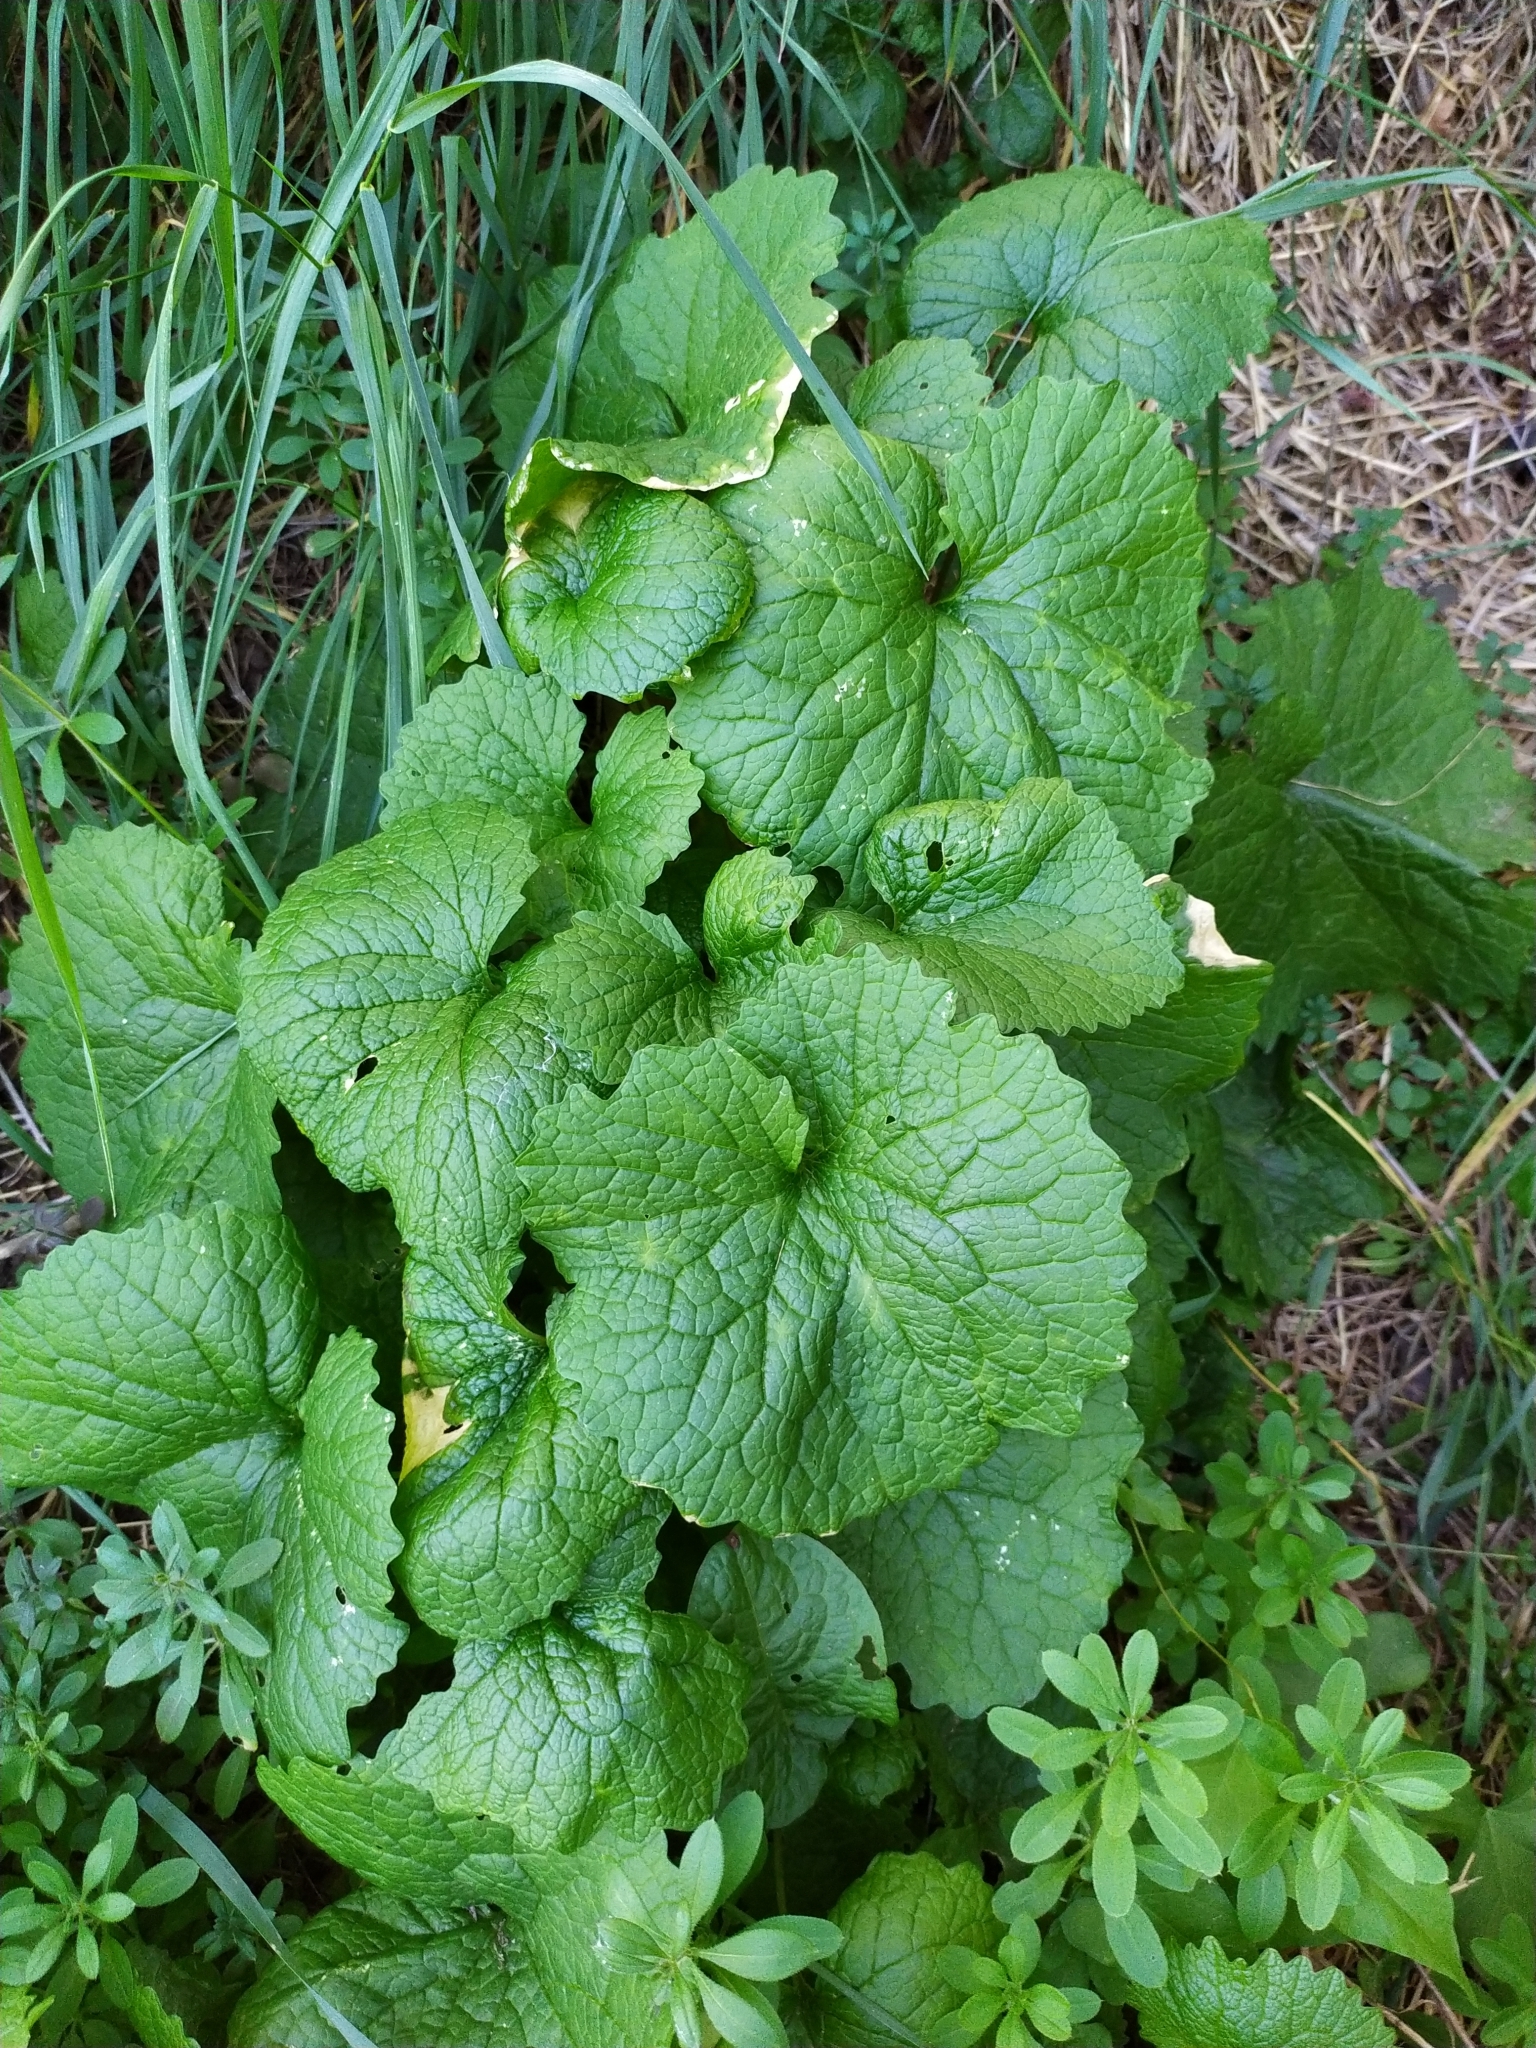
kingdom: Plantae
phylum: Tracheophyta
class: Magnoliopsida
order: Brassicales
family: Brassicaceae
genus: Alliaria
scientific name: Alliaria petiolata
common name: Garlic mustard
